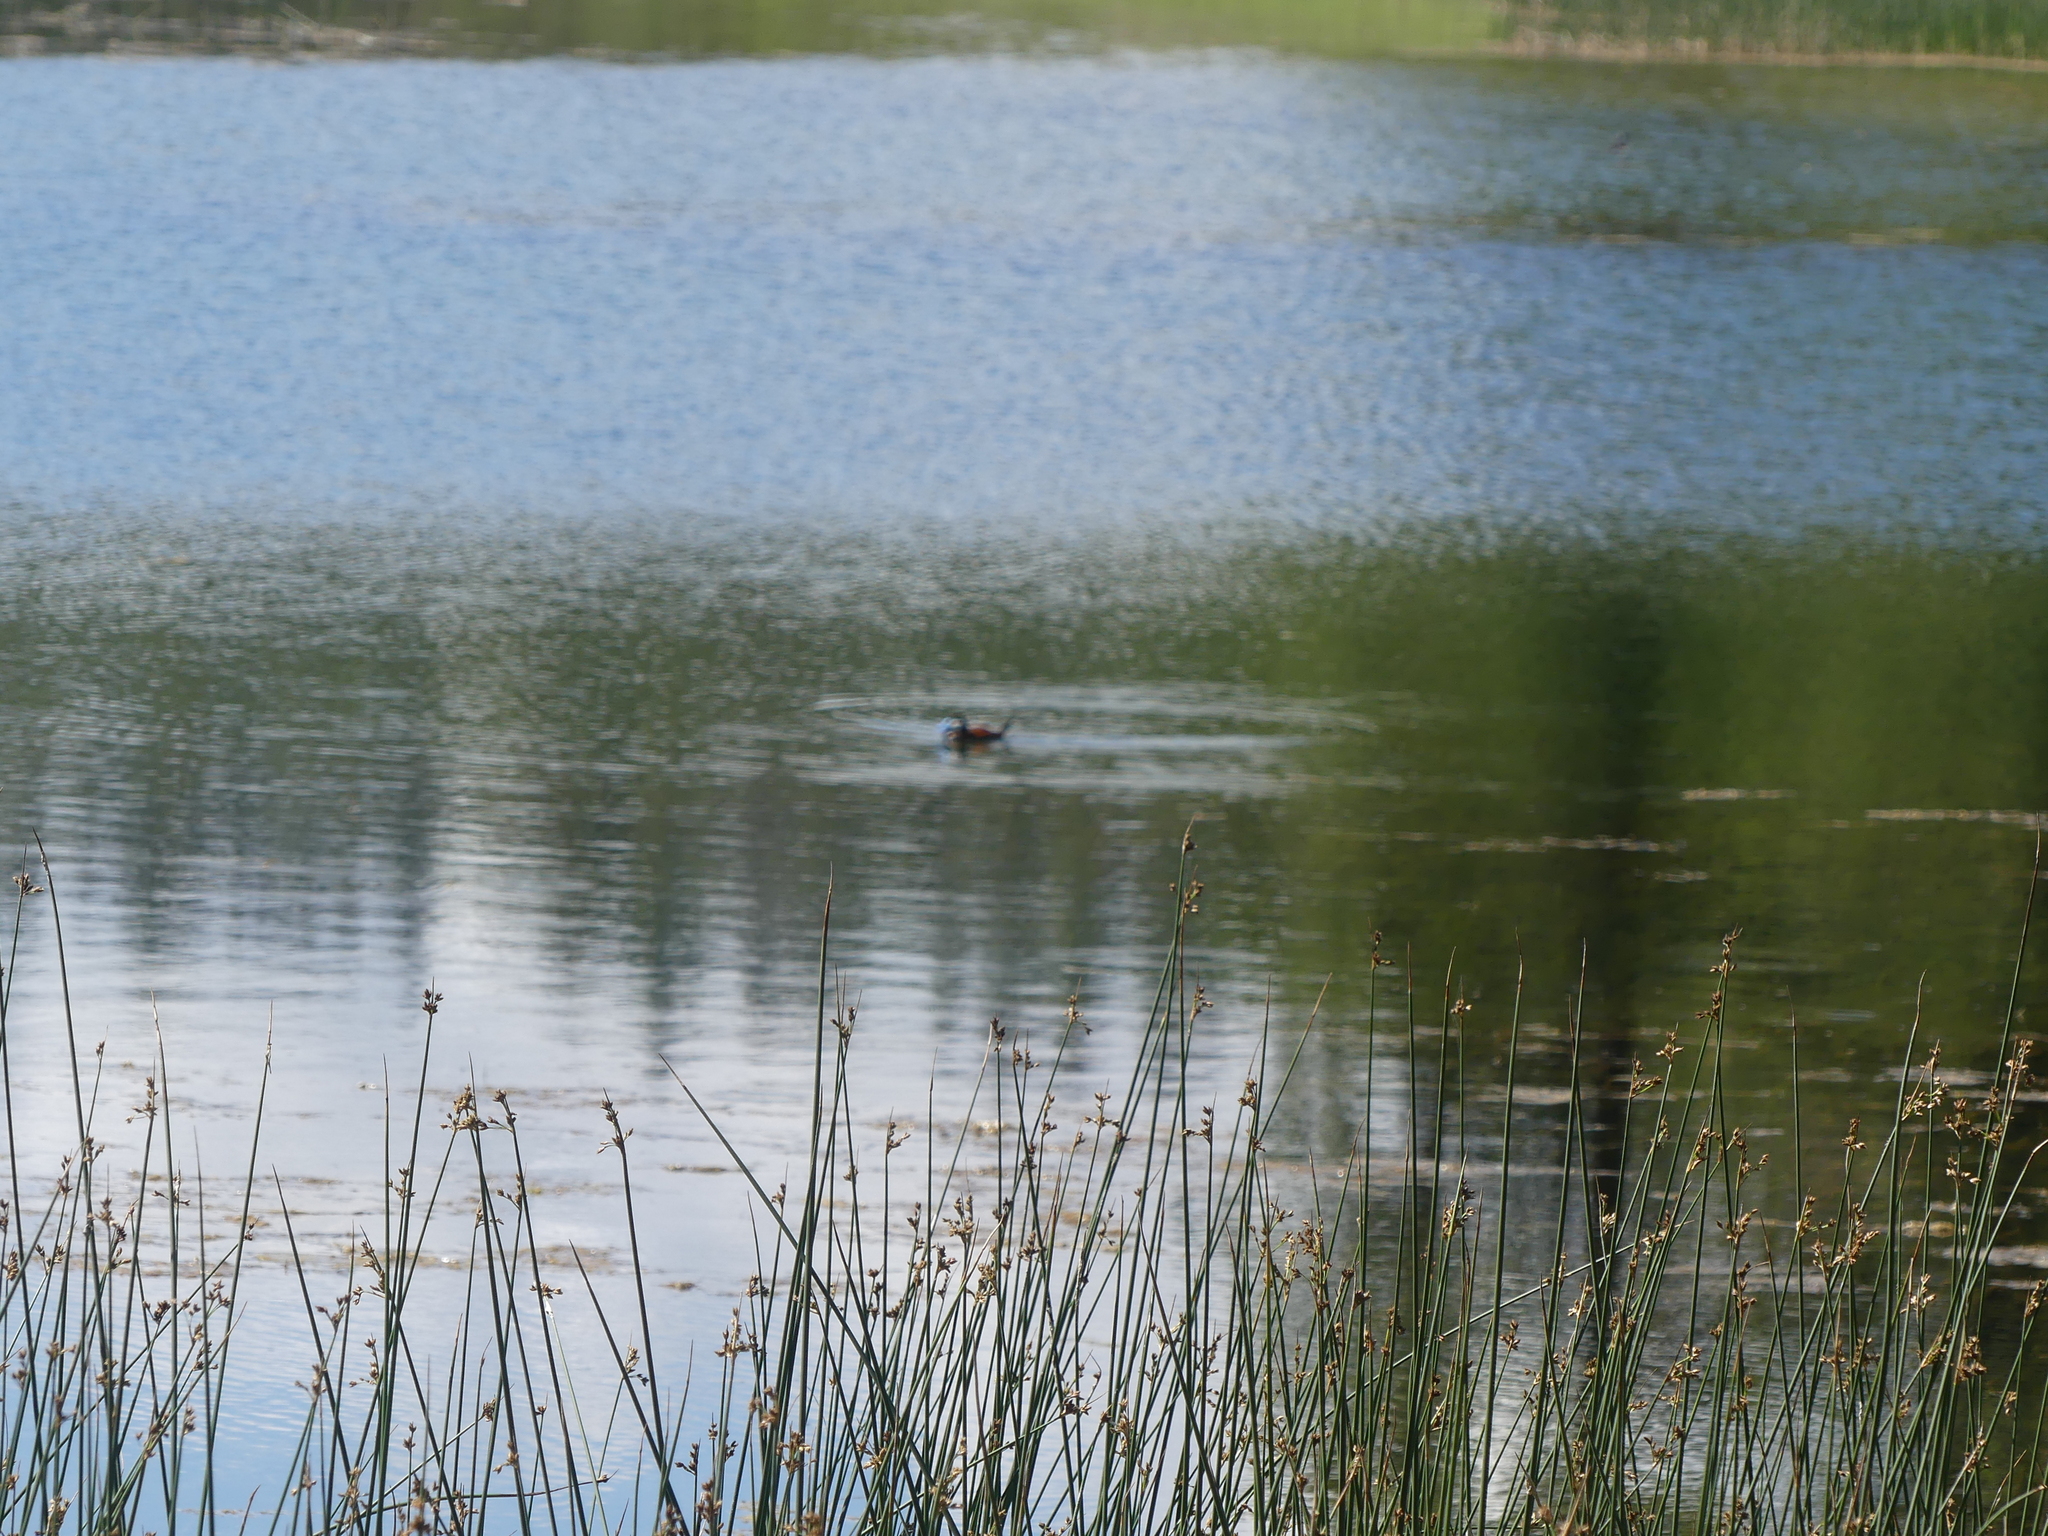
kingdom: Animalia
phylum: Chordata
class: Aves
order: Anseriformes
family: Anatidae
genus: Oxyura
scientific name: Oxyura jamaicensis
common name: Ruddy duck
